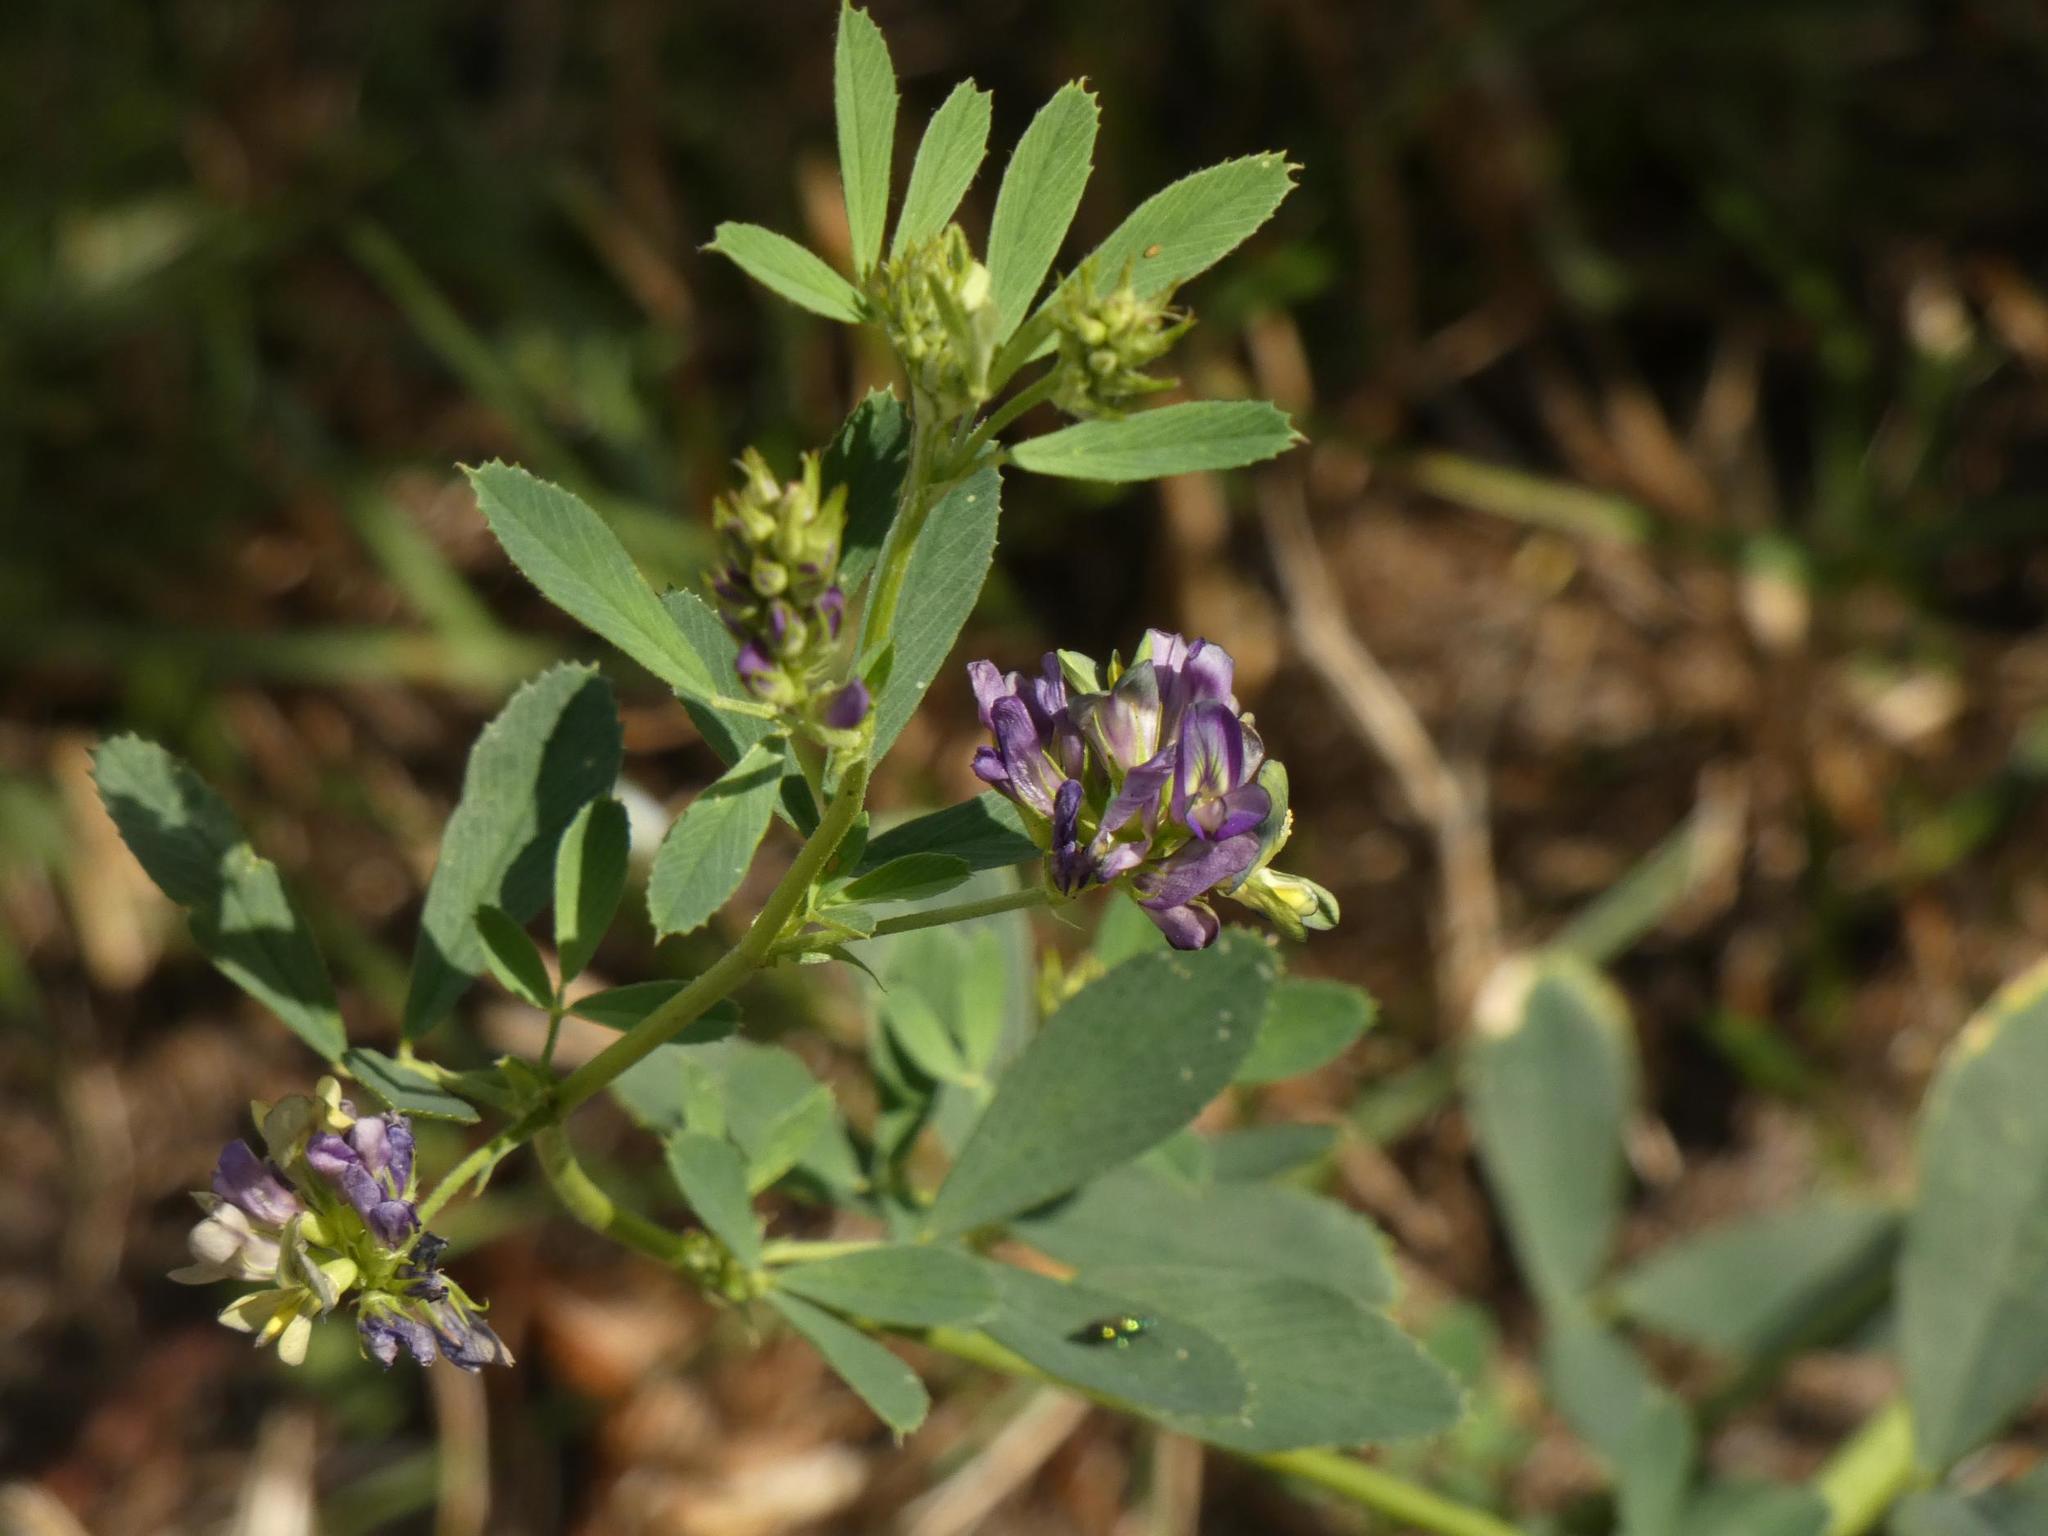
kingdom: Plantae
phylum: Tracheophyta
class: Magnoliopsida
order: Fabales
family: Fabaceae
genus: Medicago
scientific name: Medicago sativa
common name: Alfalfa
